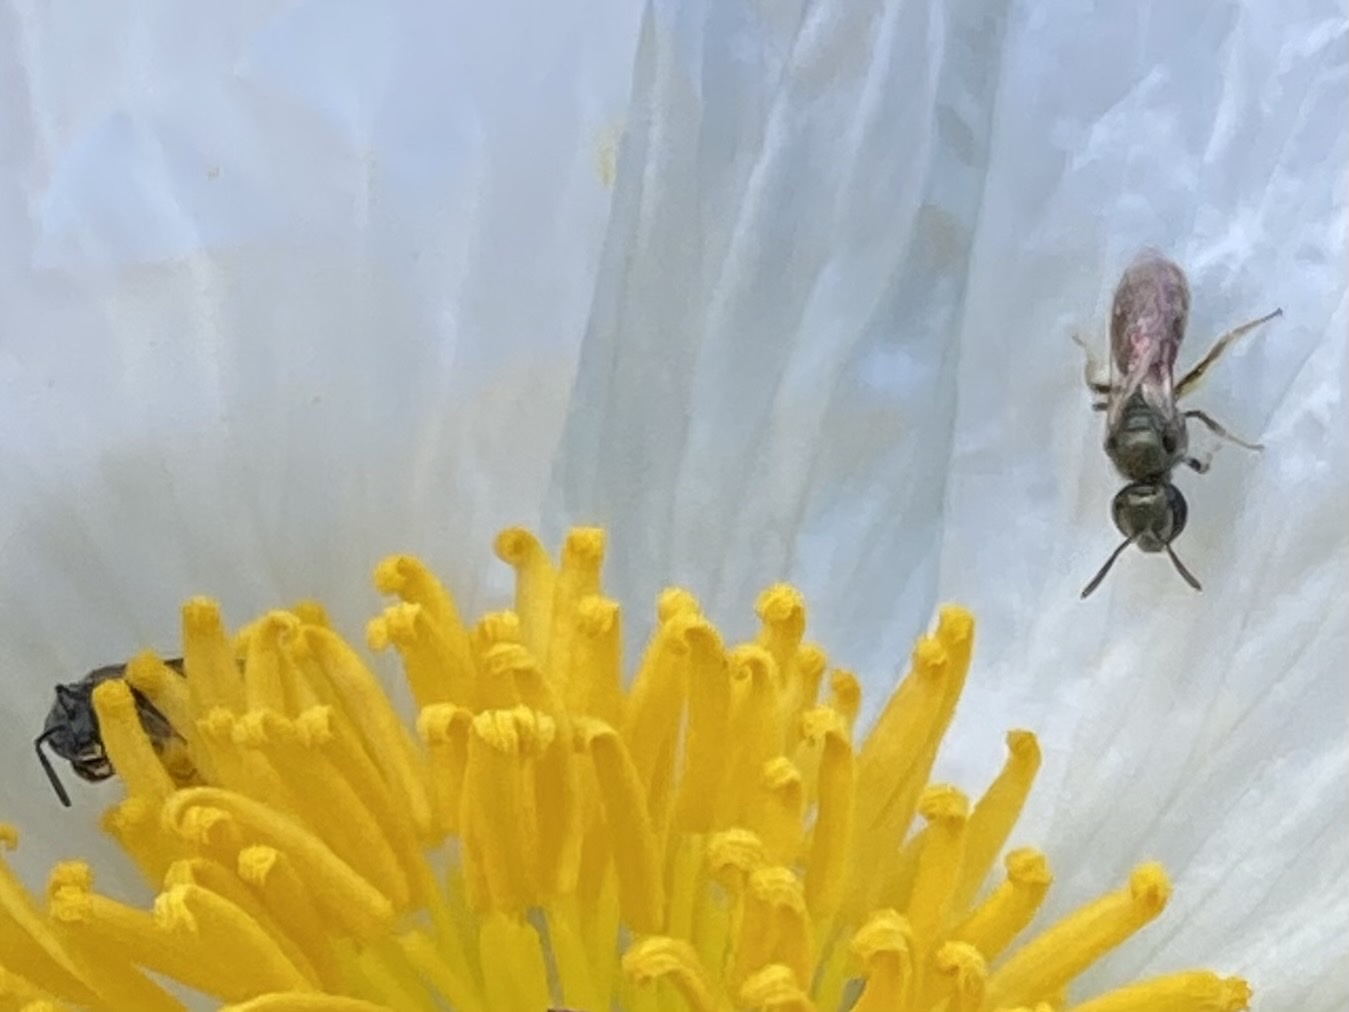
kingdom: Animalia
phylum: Arthropoda
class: Insecta
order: Hymenoptera
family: Halictidae
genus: Dialictus
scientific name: Dialictus
